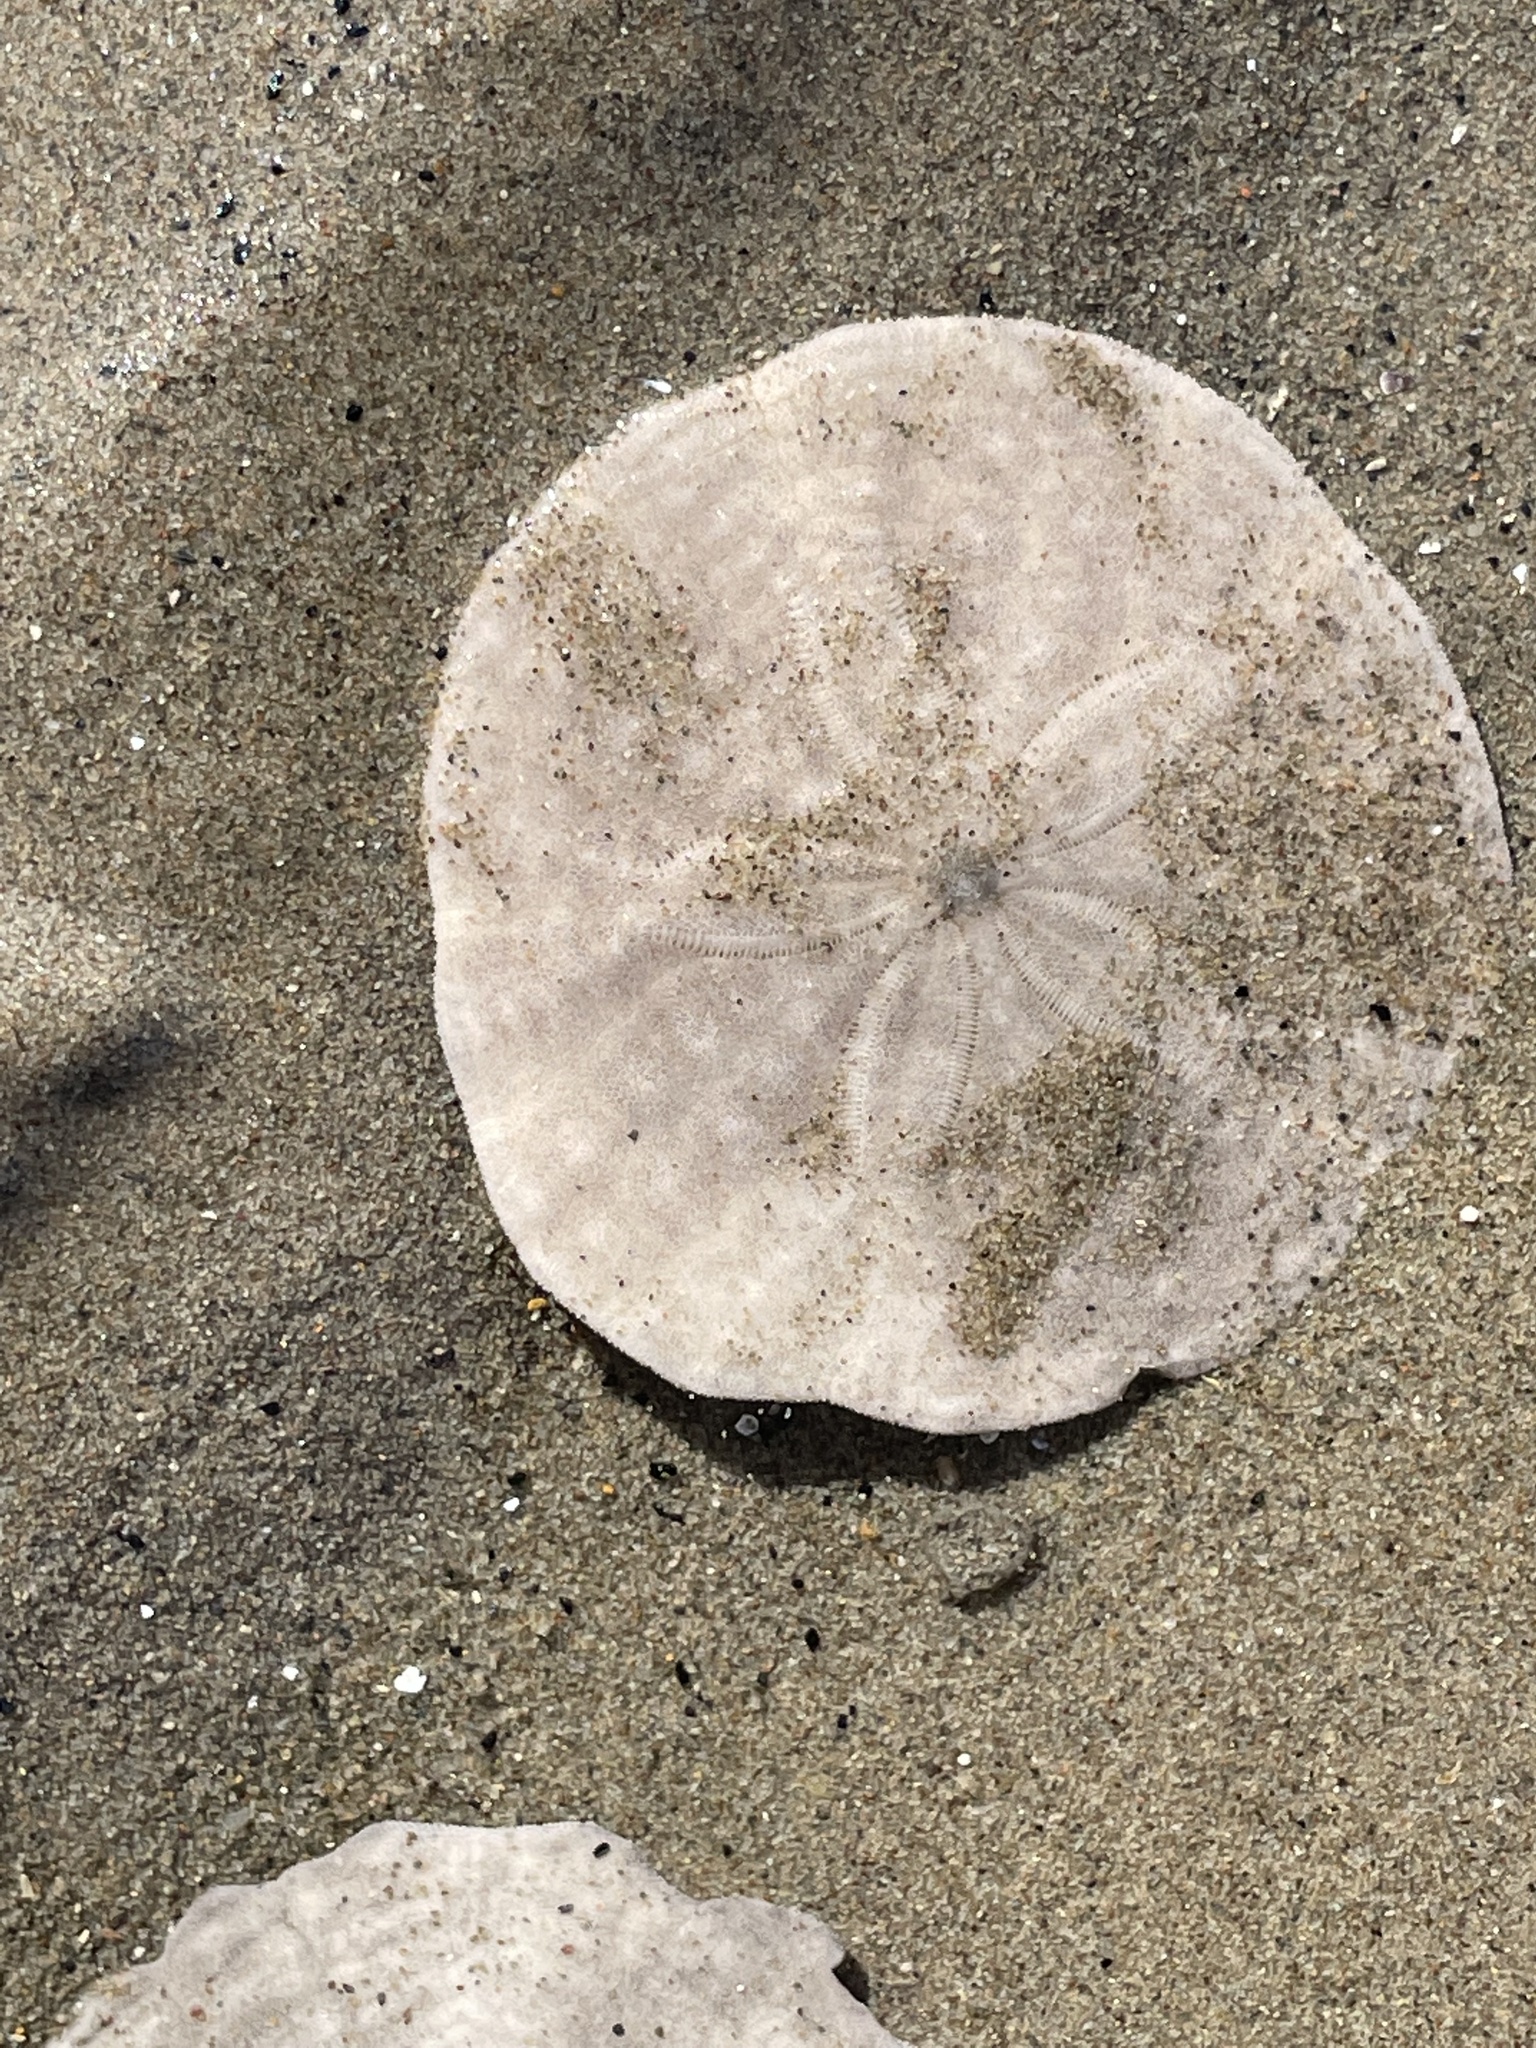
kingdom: Animalia
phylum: Echinodermata
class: Echinoidea
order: Echinolampadacea
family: Echinarachniidae
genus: Echinarachnius
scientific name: Echinarachnius parma
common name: Common sand dollar
